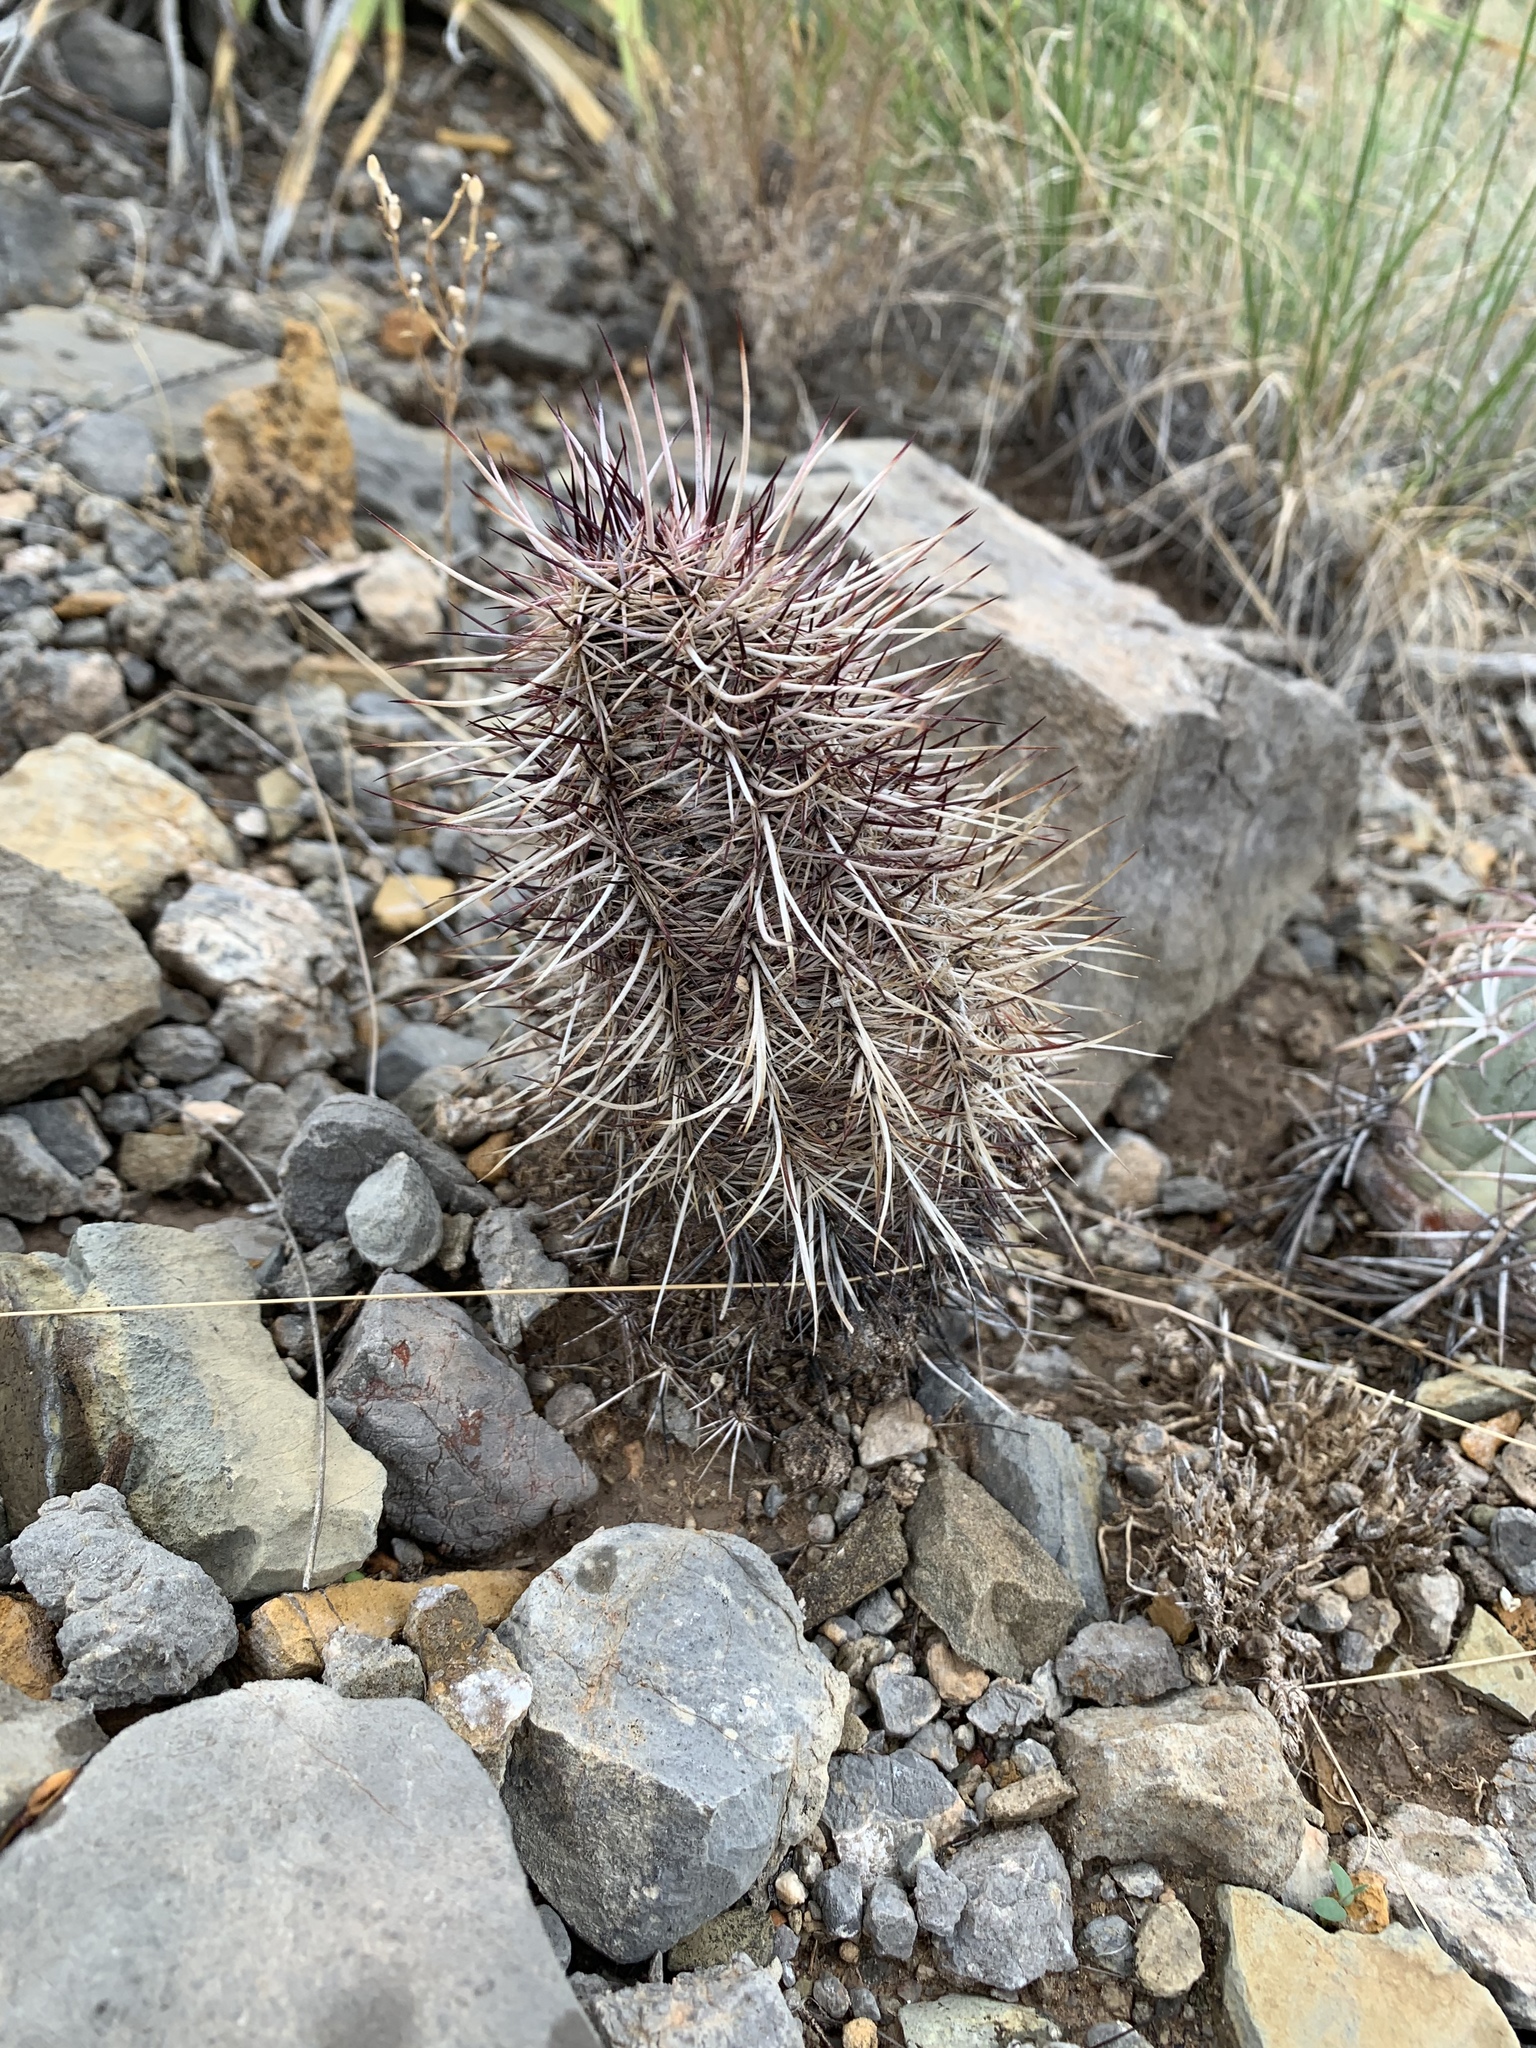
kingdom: Plantae
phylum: Tracheophyta
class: Magnoliopsida
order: Caryophyllales
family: Cactaceae
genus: Echinocereus
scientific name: Echinocereus viridiflorus
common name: Nylon hedgehog cactus
